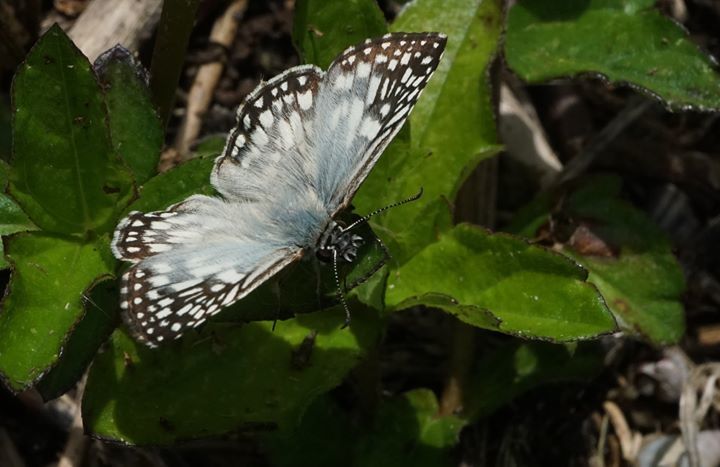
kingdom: Animalia
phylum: Arthropoda
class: Insecta
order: Lepidoptera
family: Hesperiidae
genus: Pyrgus
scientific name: Pyrgus oileus
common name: Tropical checkered-skipper
